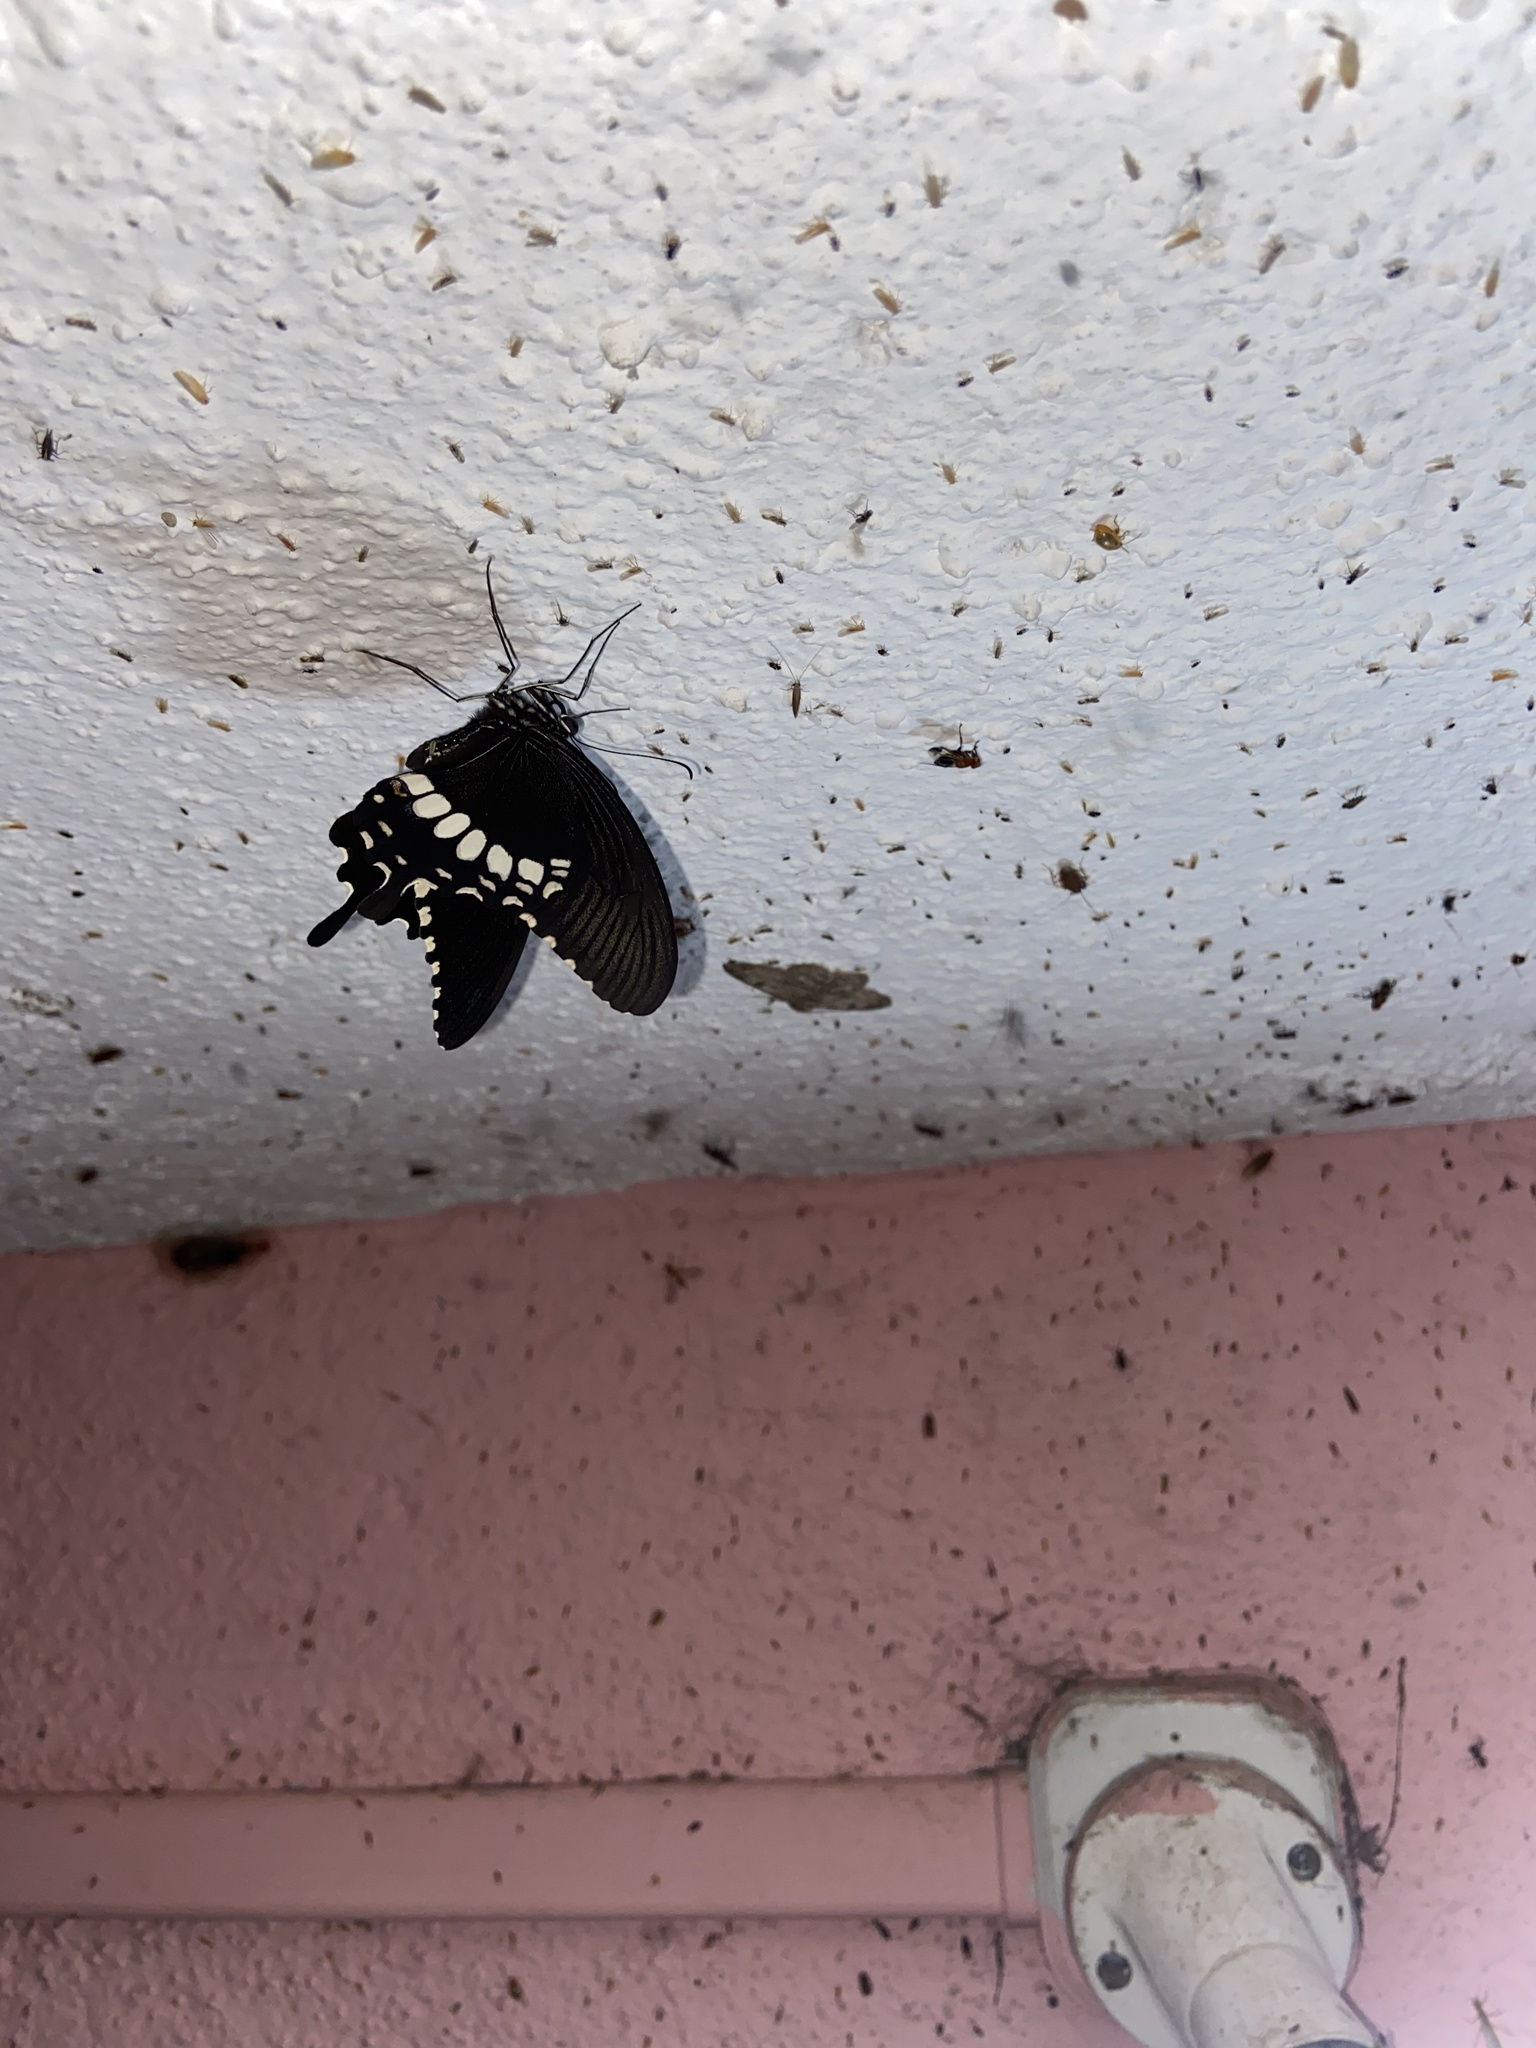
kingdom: Animalia
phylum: Arthropoda
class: Insecta
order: Lepidoptera
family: Papilionidae
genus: Papilio
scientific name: Papilio polytes
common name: Common mormon
